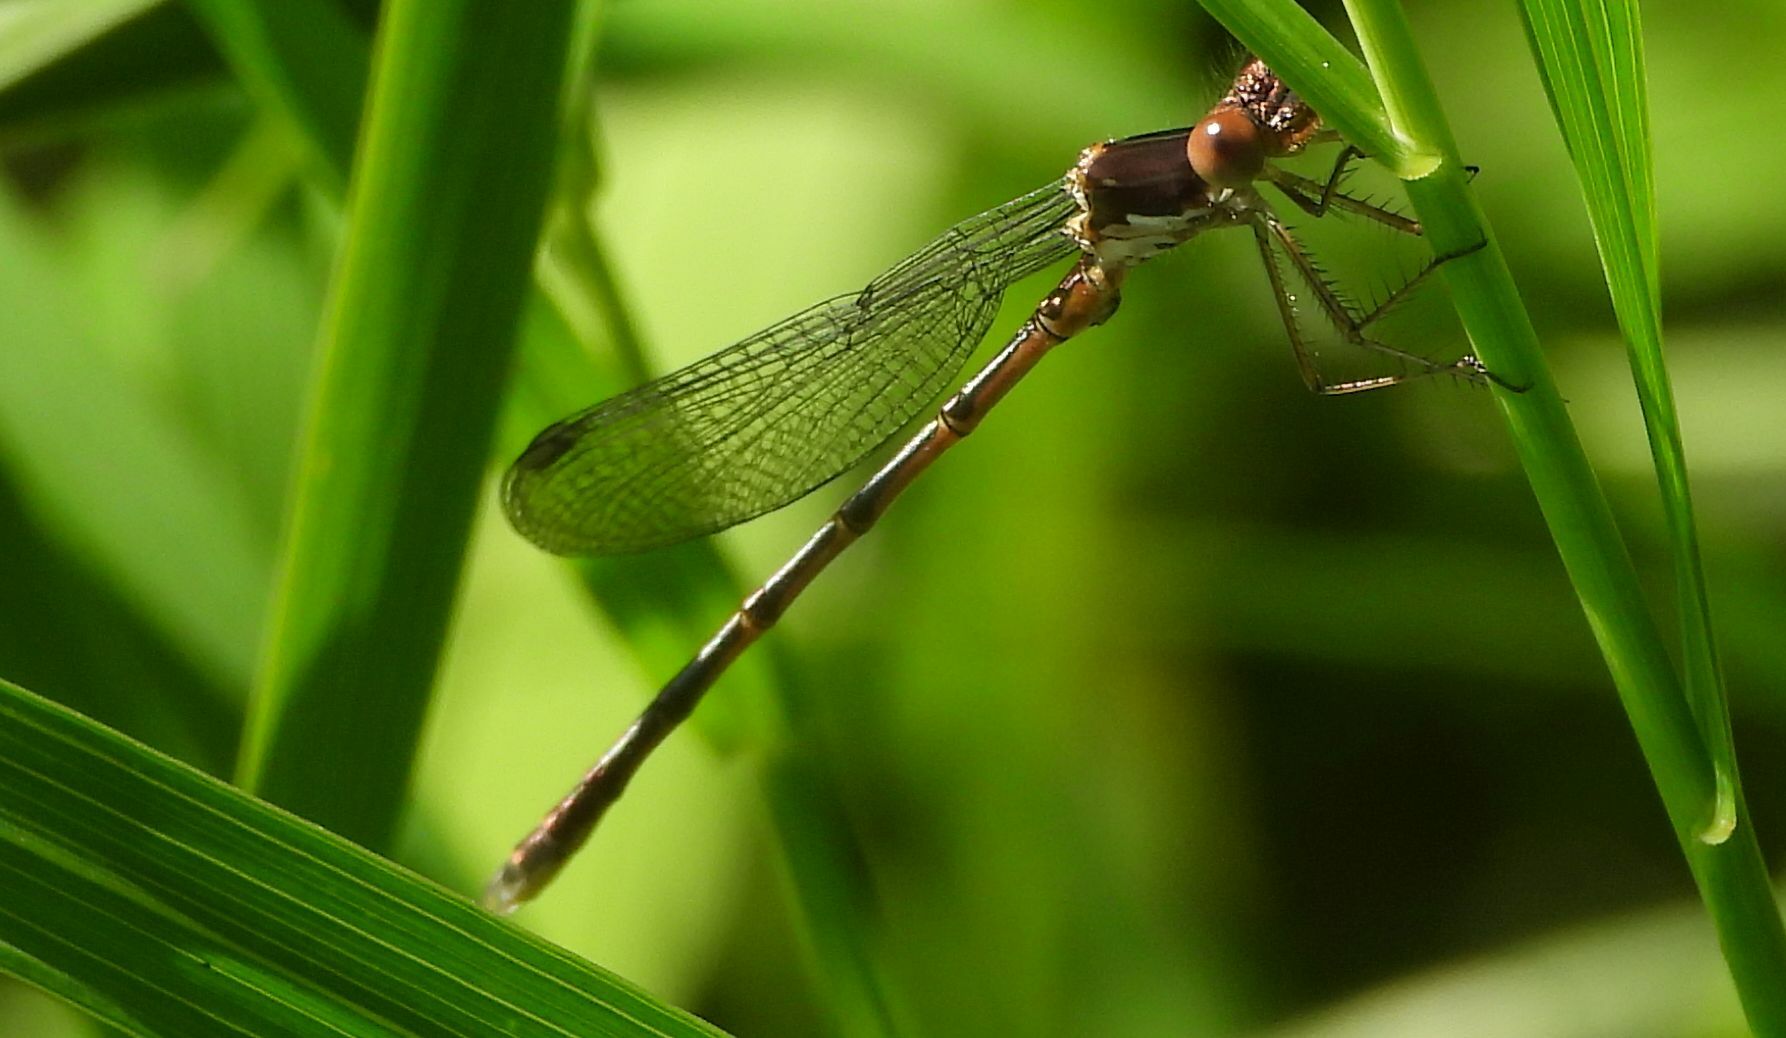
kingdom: Animalia
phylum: Arthropoda
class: Insecta
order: Odonata
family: Lestidae
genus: Lestes
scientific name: Lestes congener
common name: Spotted spreadwing
